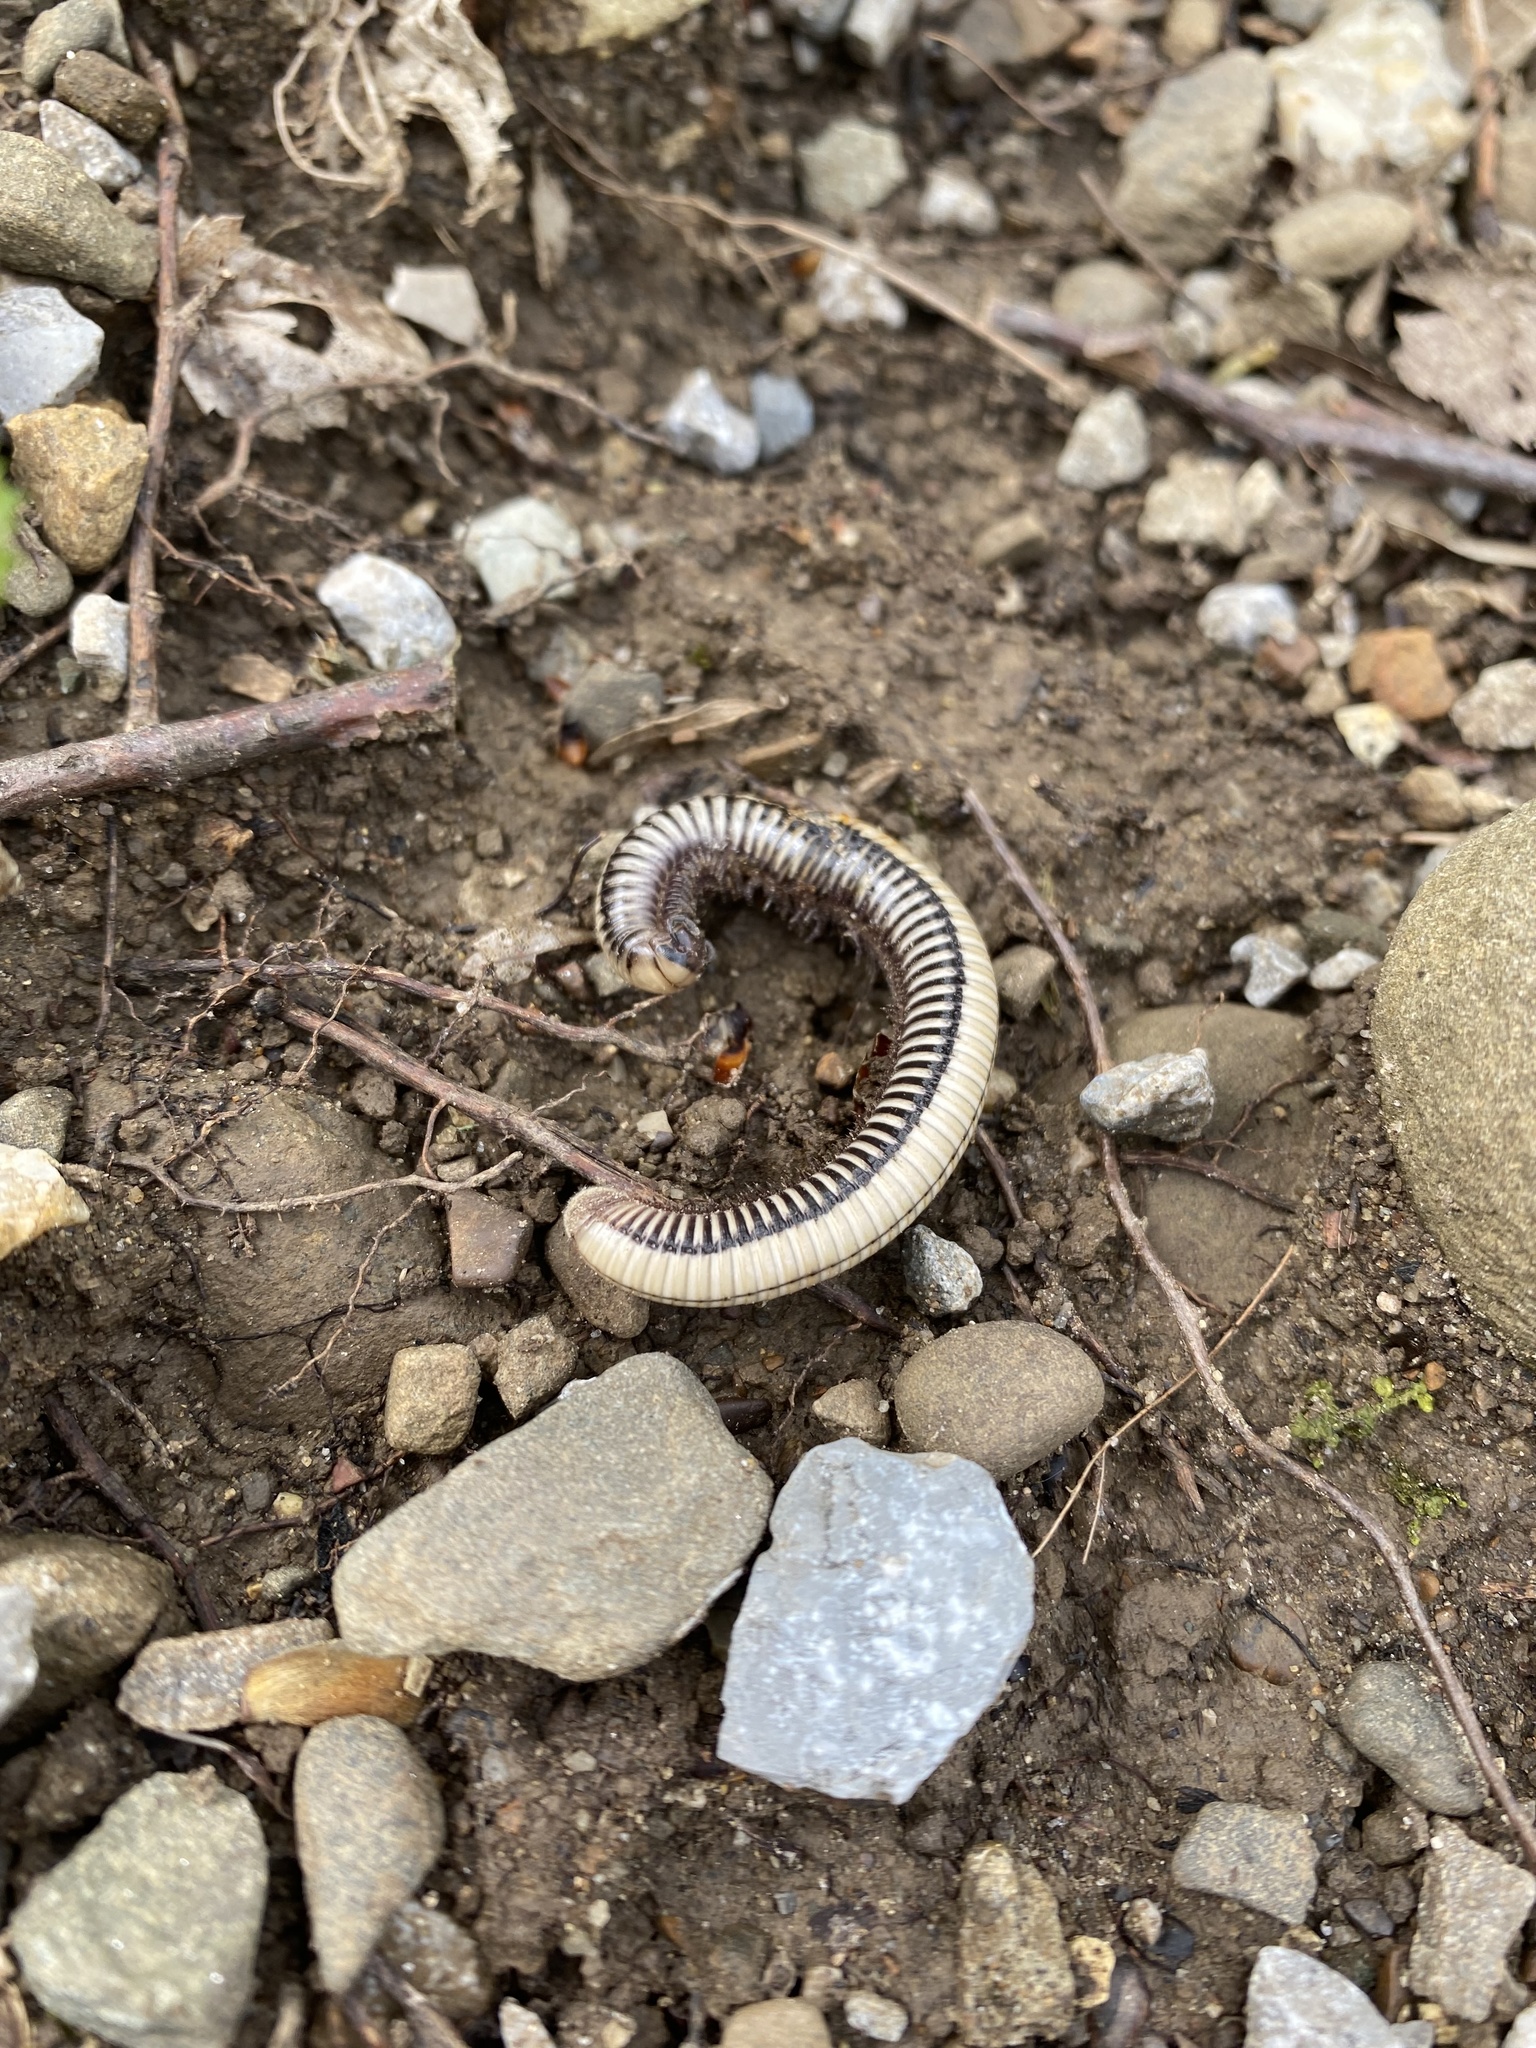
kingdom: Animalia
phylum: Arthropoda
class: Diplopoda
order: Julida
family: Julidae
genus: Pachyiulus
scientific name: Pachyiulus krivolutskyi
